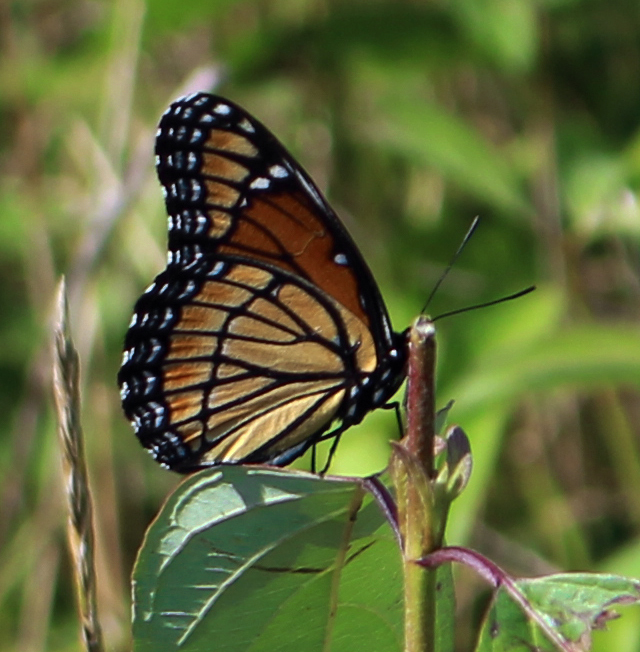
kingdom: Animalia
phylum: Arthropoda
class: Insecta
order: Lepidoptera
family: Nymphalidae
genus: Limenitis
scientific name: Limenitis archippus
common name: Viceroy
